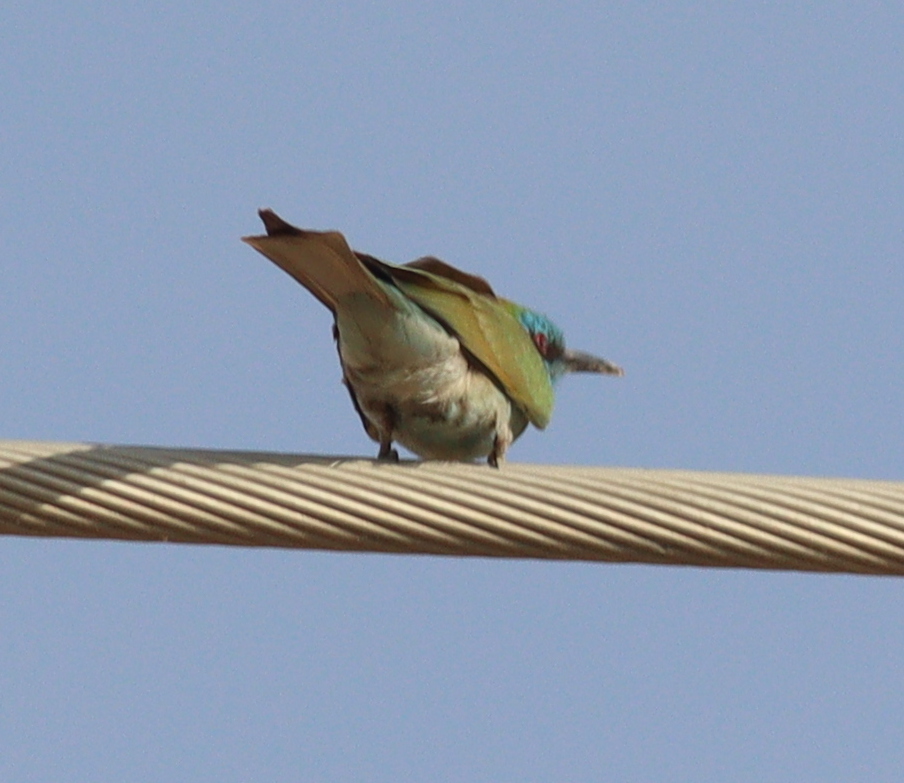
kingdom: Animalia
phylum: Chordata
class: Aves
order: Coraciiformes
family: Meropidae
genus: Merops
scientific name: Merops cyanophrys
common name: Arabian green bee-eater
